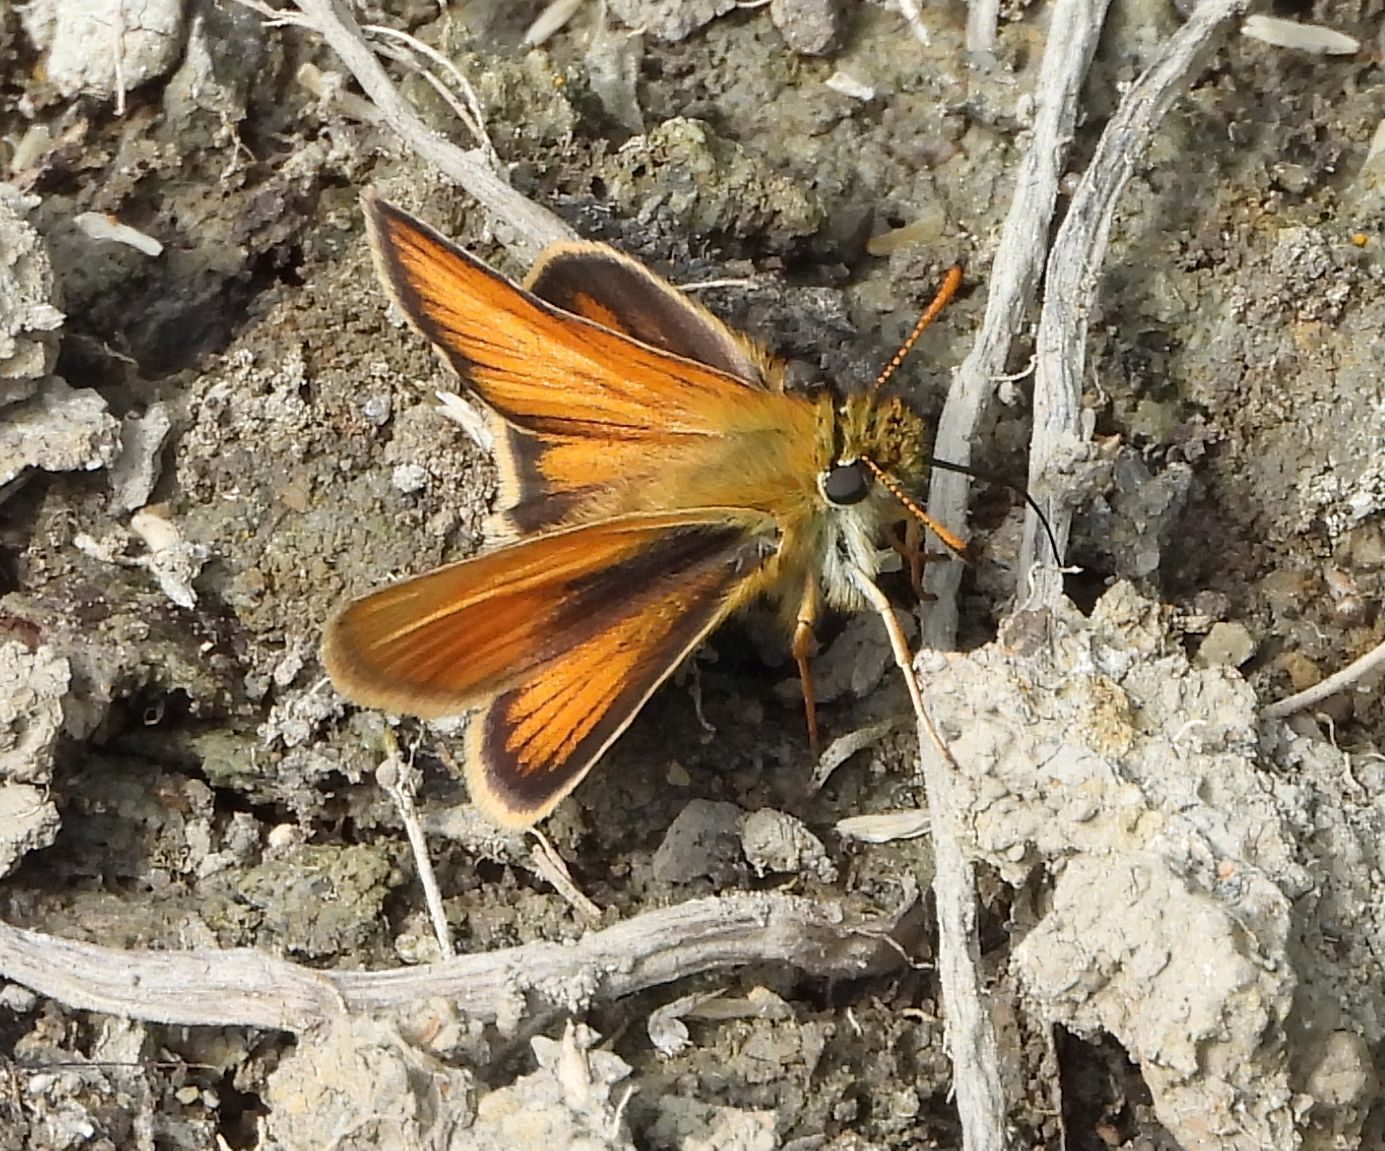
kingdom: Animalia
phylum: Arthropoda
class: Insecta
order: Lepidoptera
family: Hesperiidae
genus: Thymelicus
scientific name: Thymelicus lineola
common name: Essex skipper
